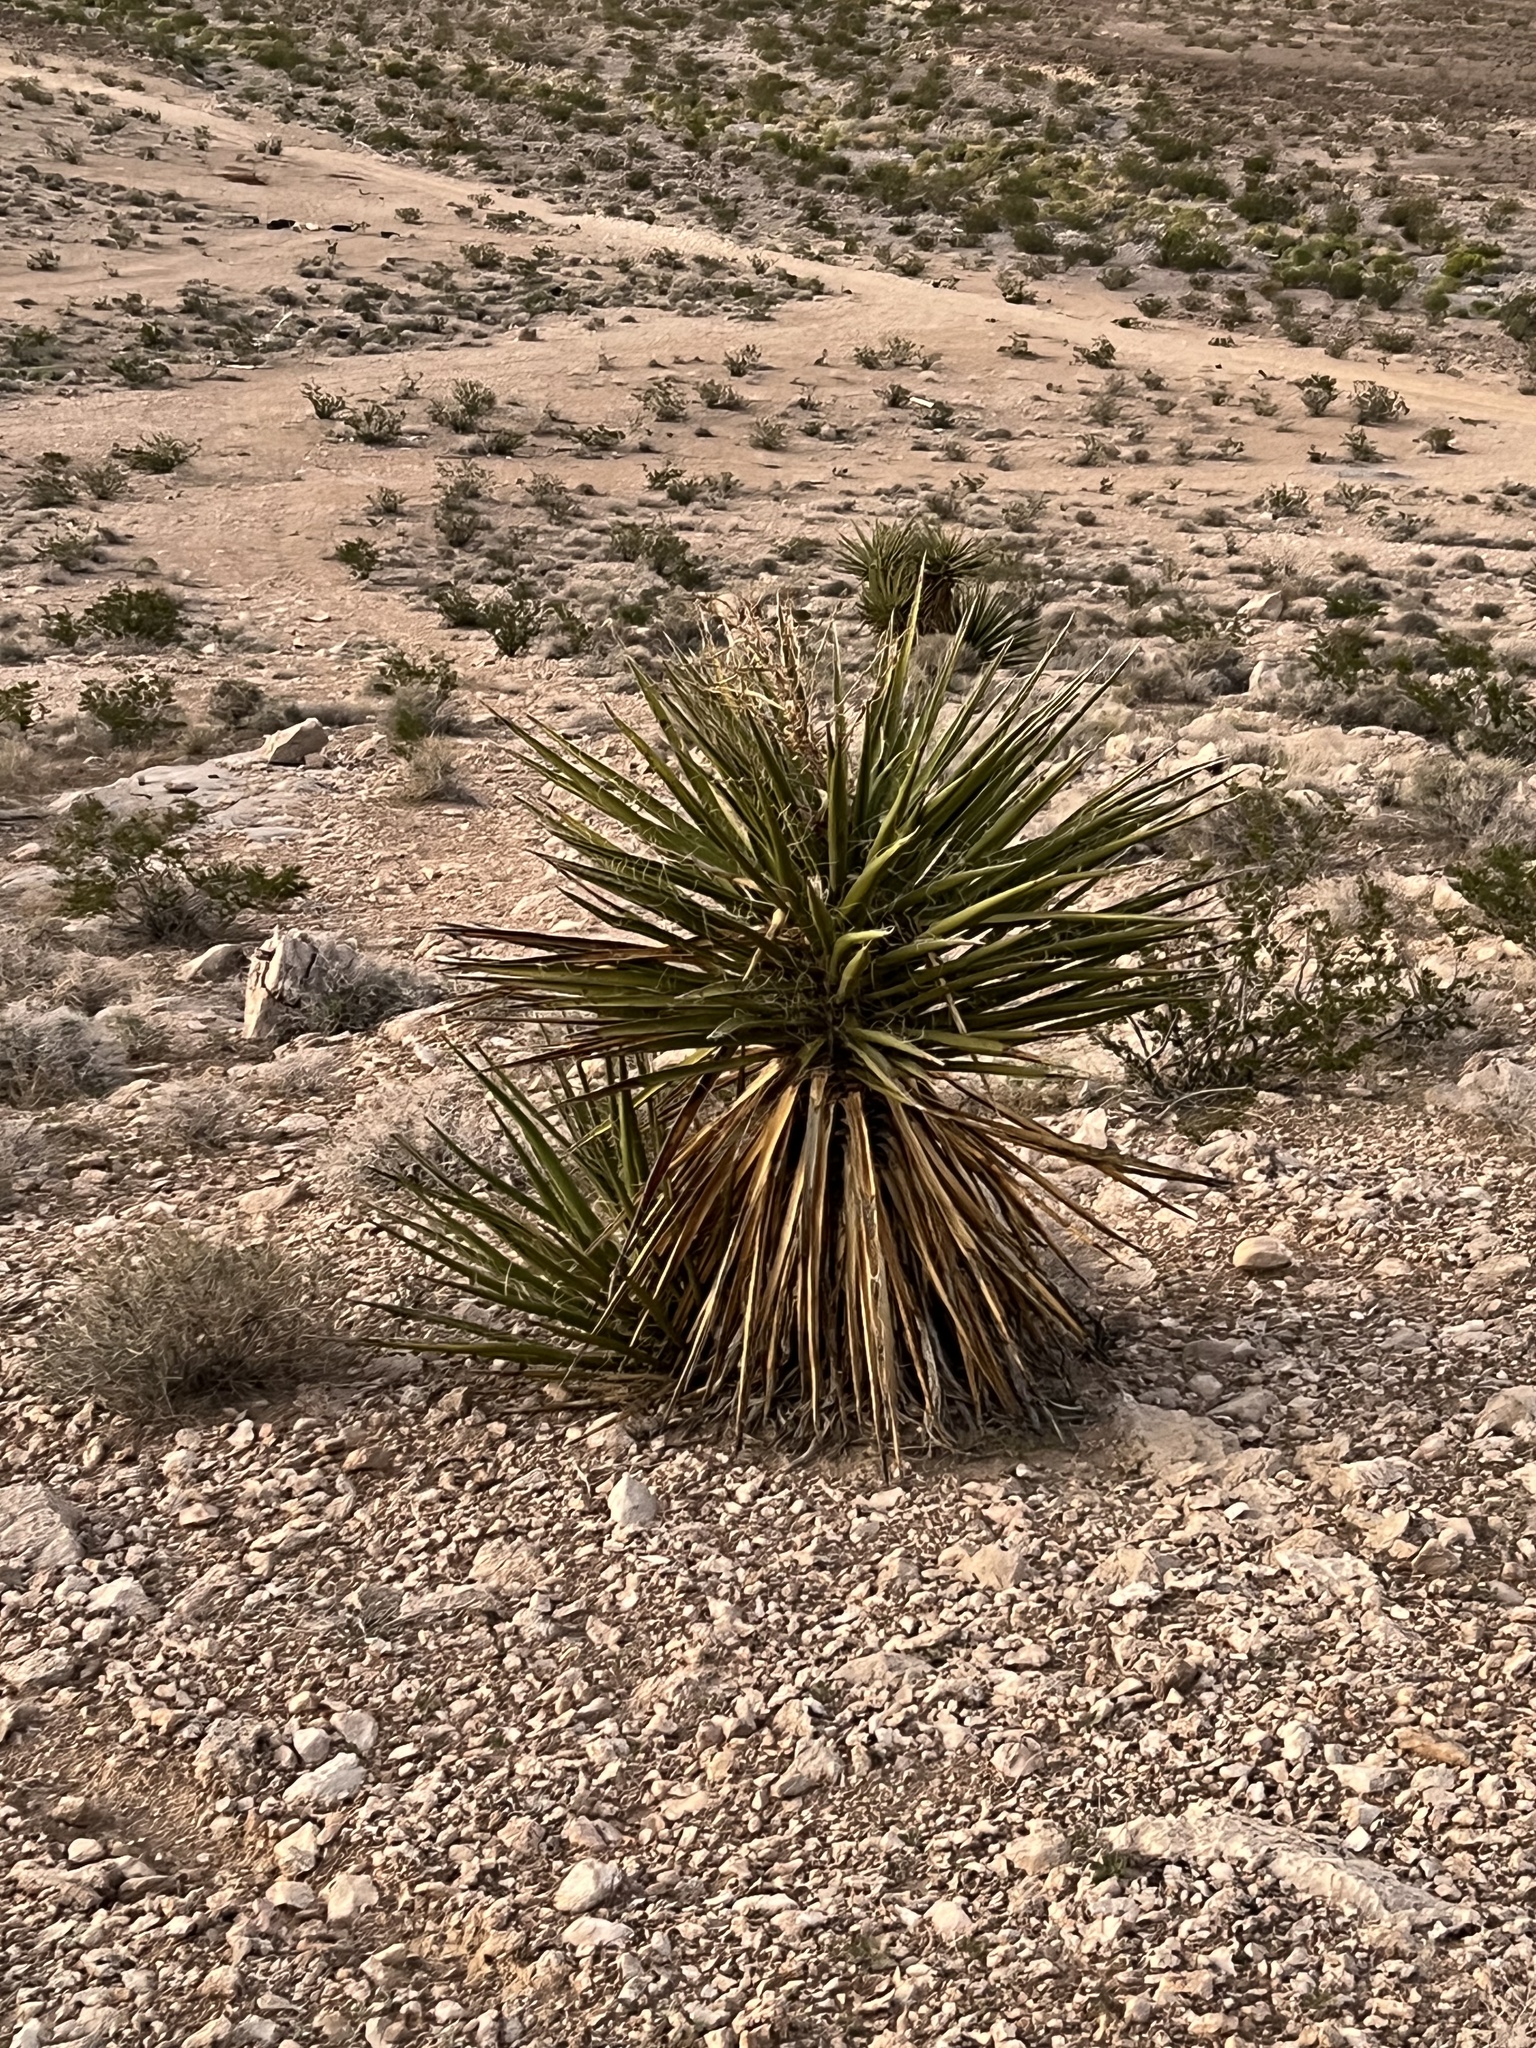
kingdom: Plantae
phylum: Tracheophyta
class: Liliopsida
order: Asparagales
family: Asparagaceae
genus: Yucca
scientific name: Yucca schidigera
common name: Mojave yucca
